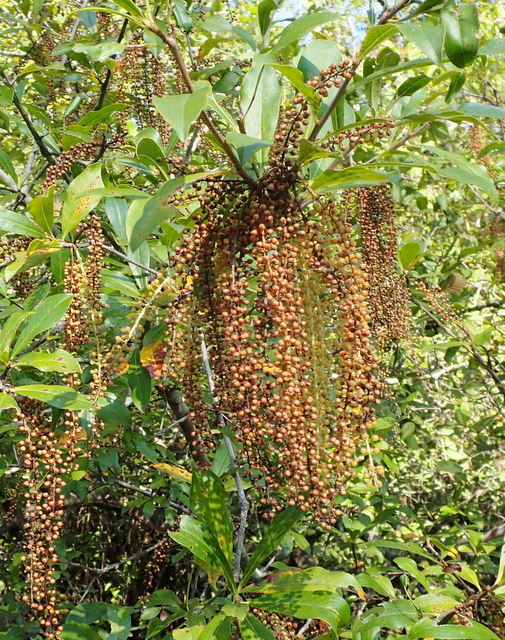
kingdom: Plantae
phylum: Tracheophyta
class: Magnoliopsida
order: Ericales
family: Cyrillaceae
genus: Cyrilla
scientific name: Cyrilla racemiflora
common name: Black titi
